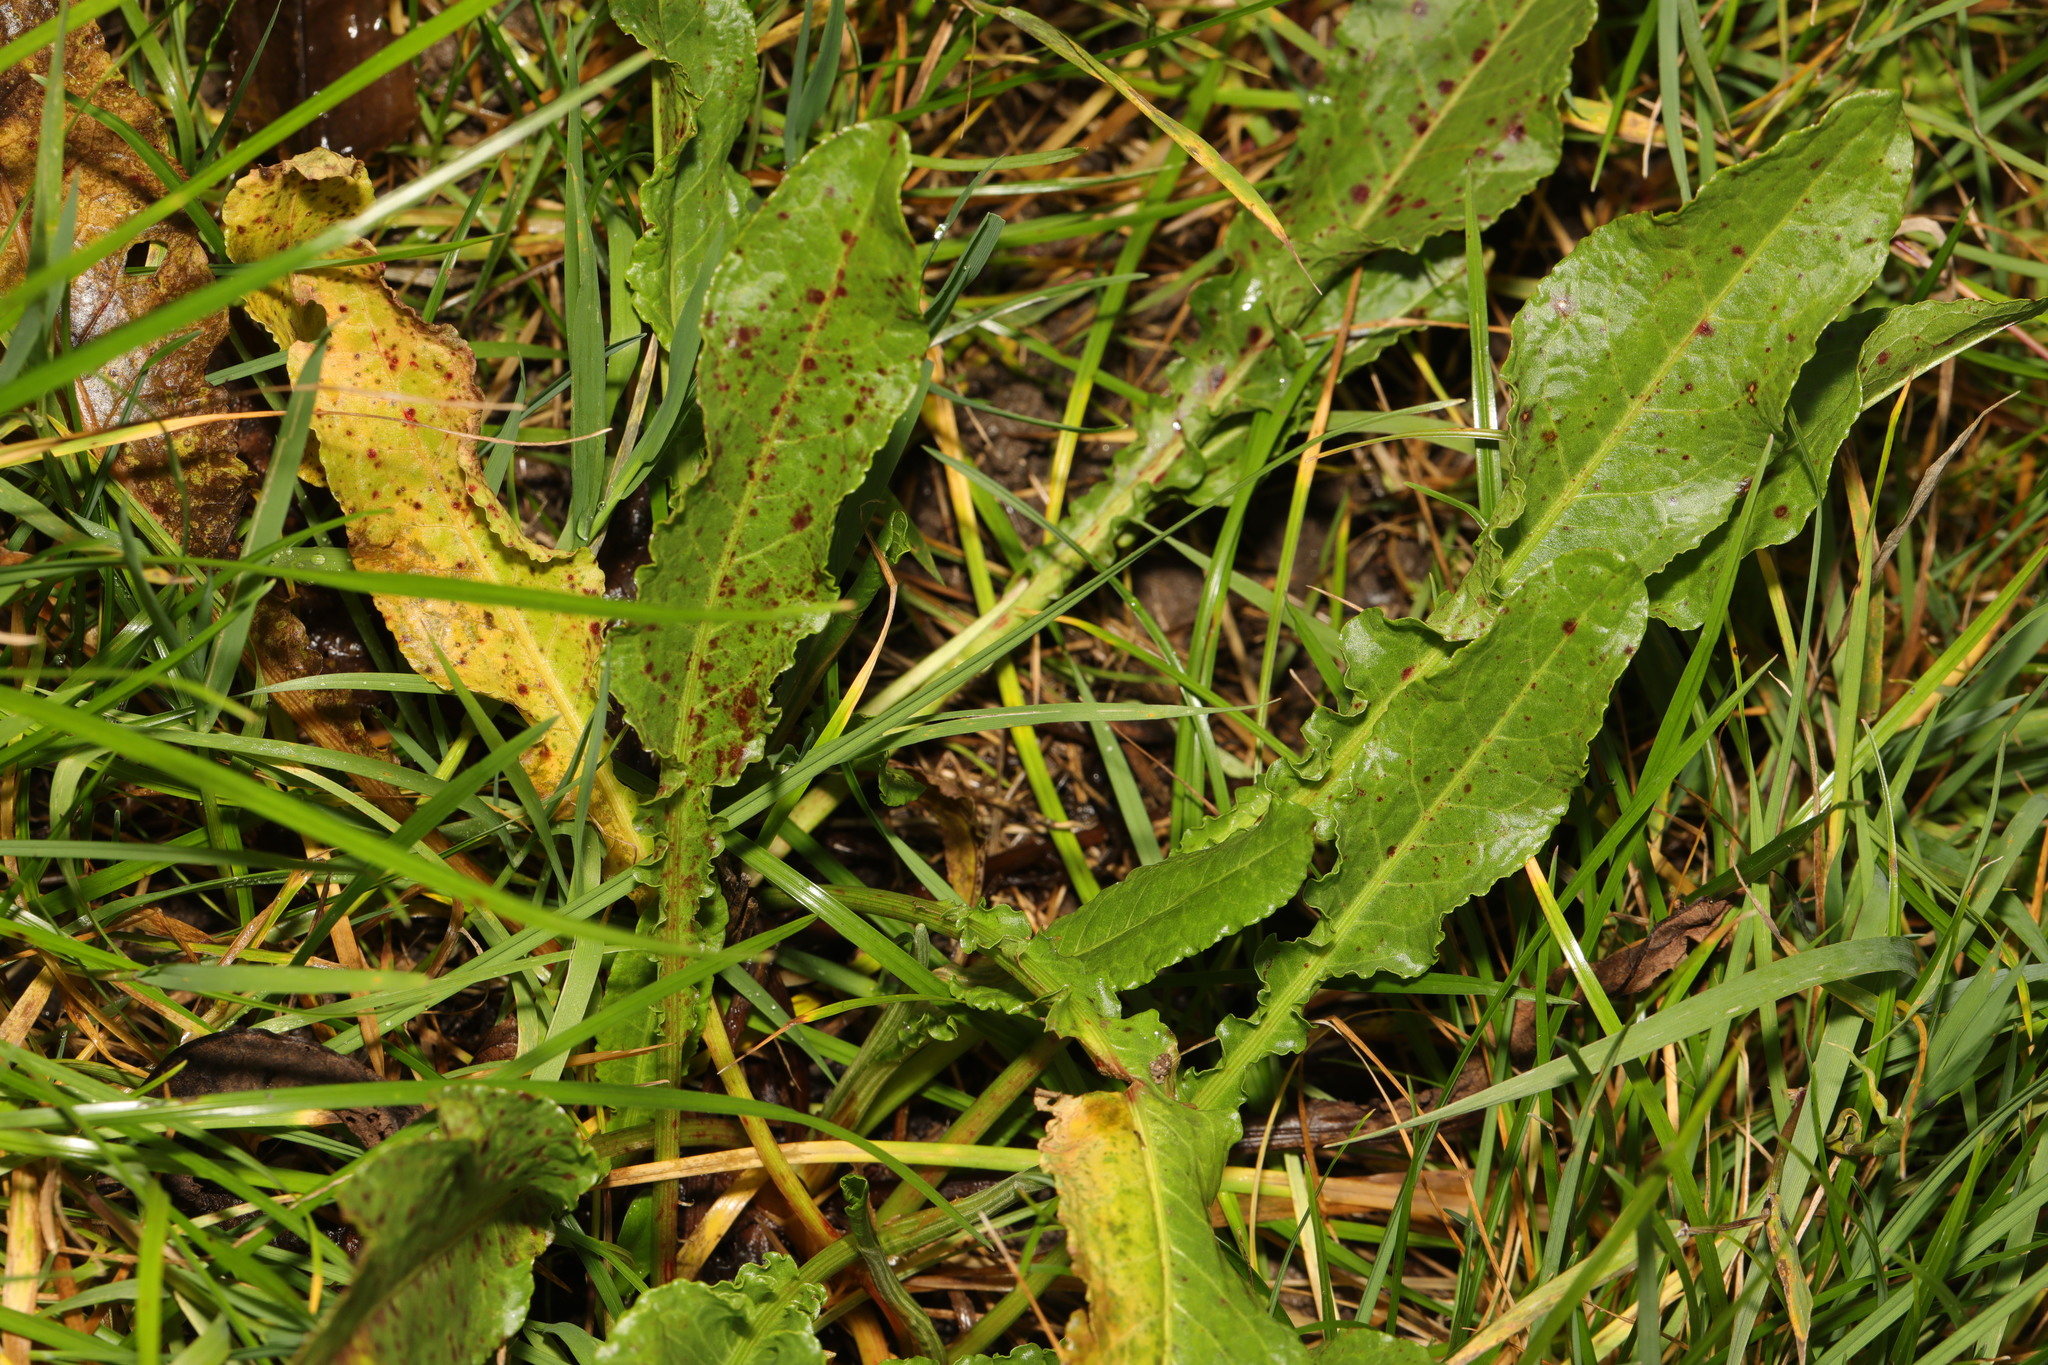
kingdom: Plantae
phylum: Tracheophyta
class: Magnoliopsida
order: Caryophyllales
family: Polygonaceae
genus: Rumex
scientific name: Rumex crispus
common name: Curled dock
